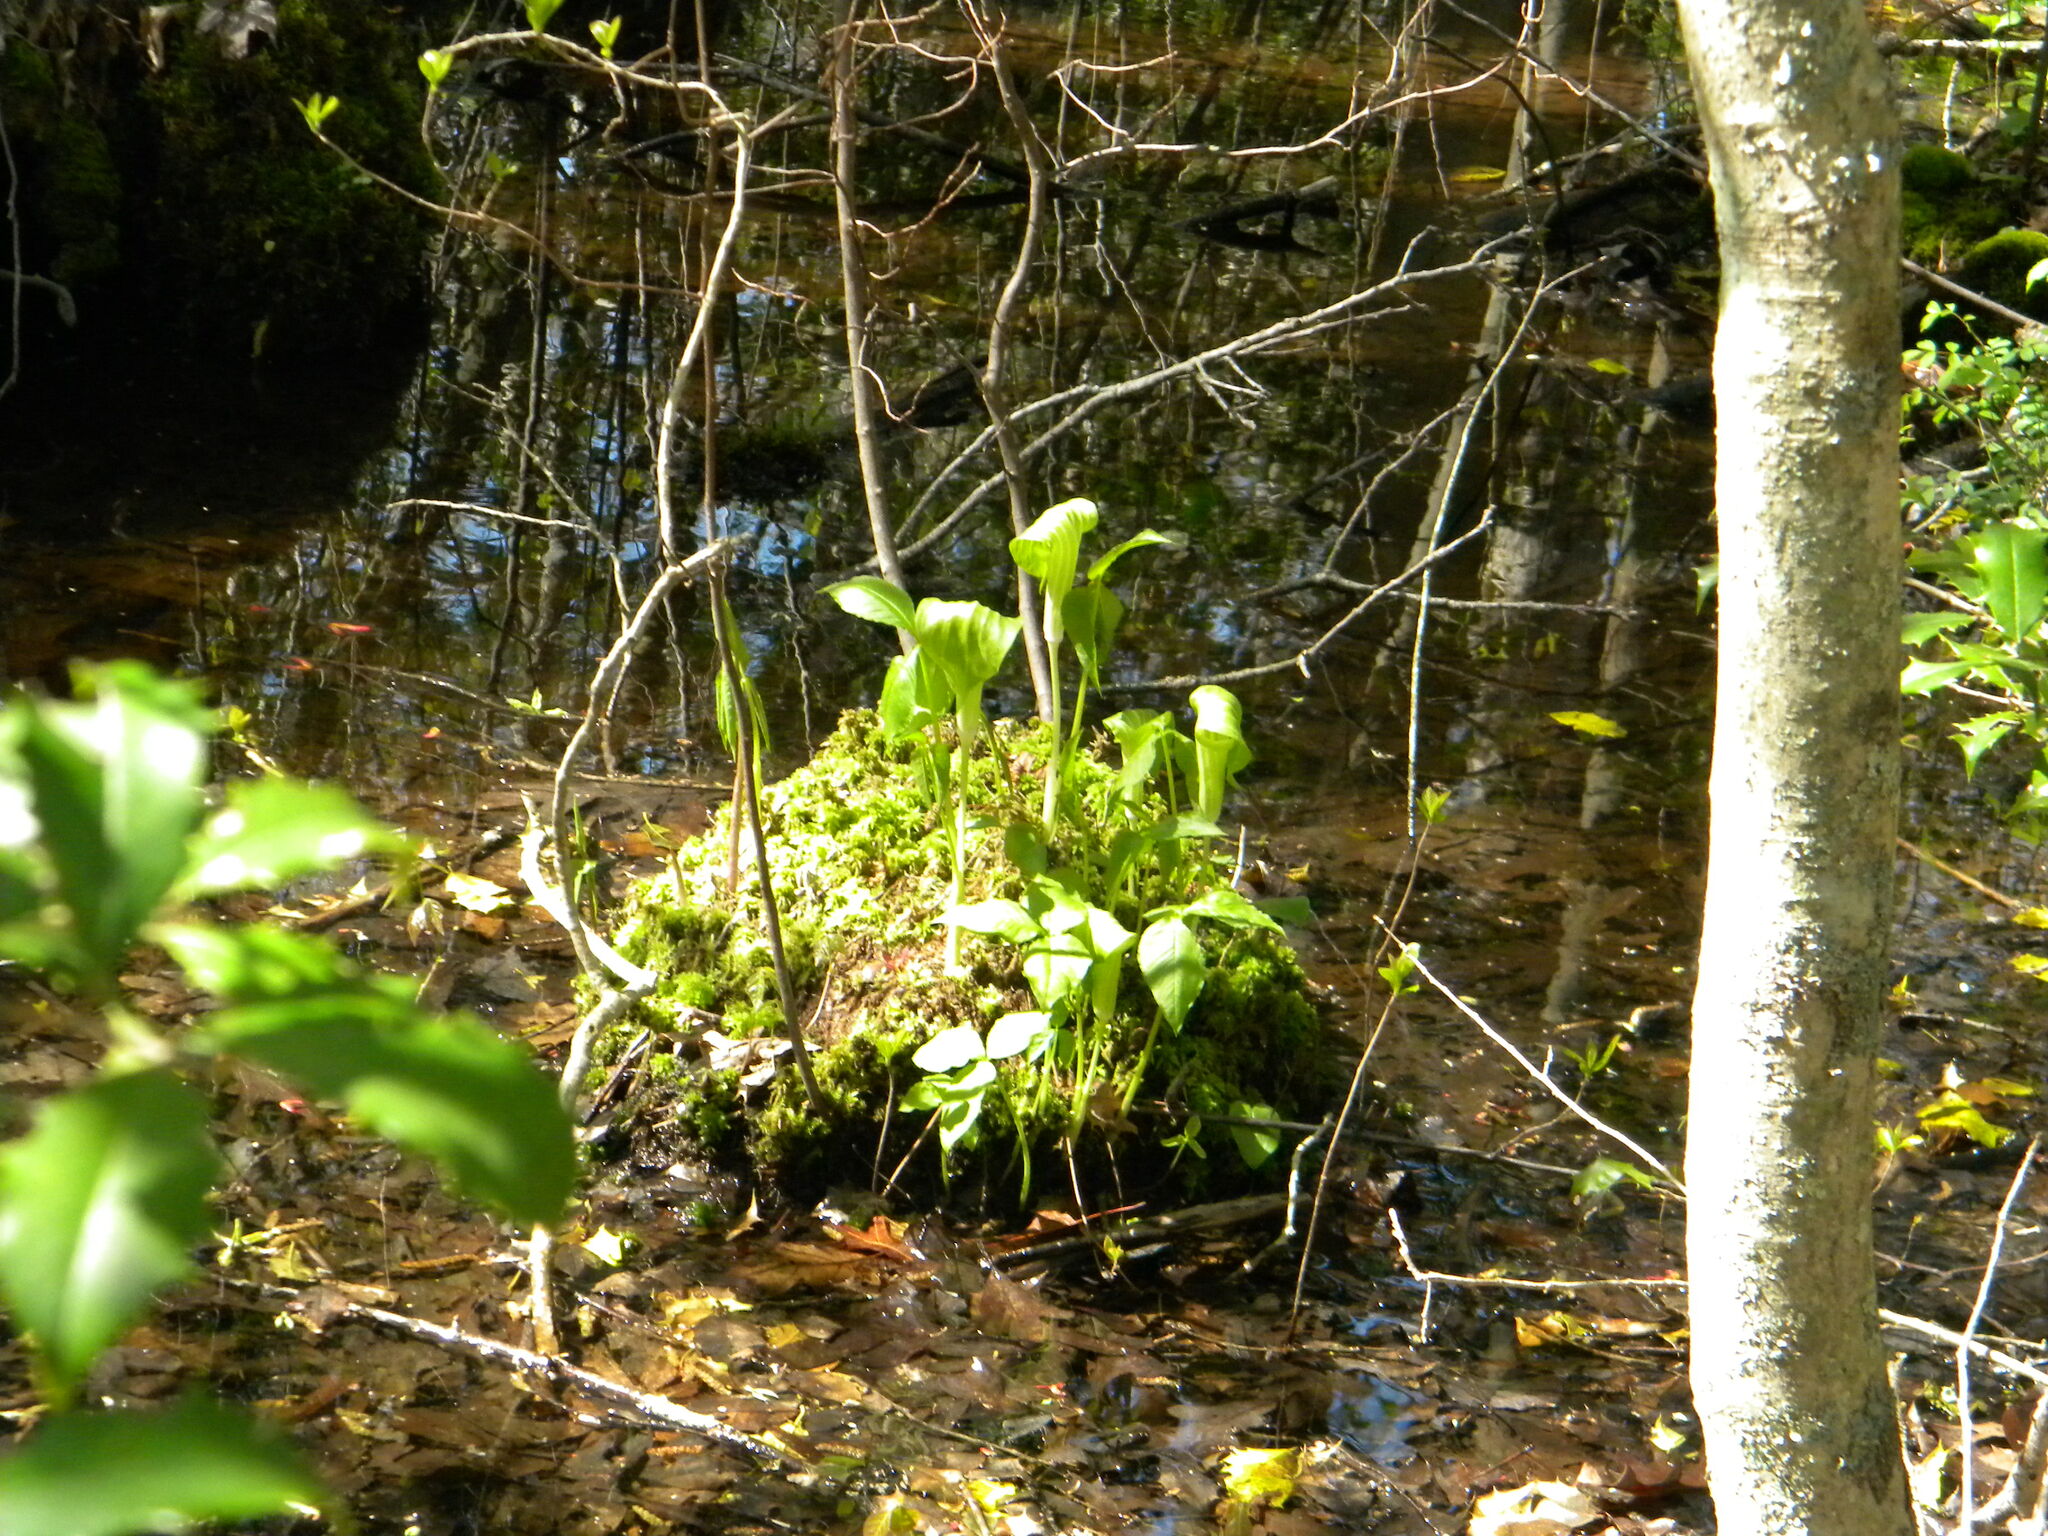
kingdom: Plantae
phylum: Tracheophyta
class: Liliopsida
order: Alismatales
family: Araceae
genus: Arisaema
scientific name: Arisaema triphyllum
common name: Jack-in-the-pulpit
